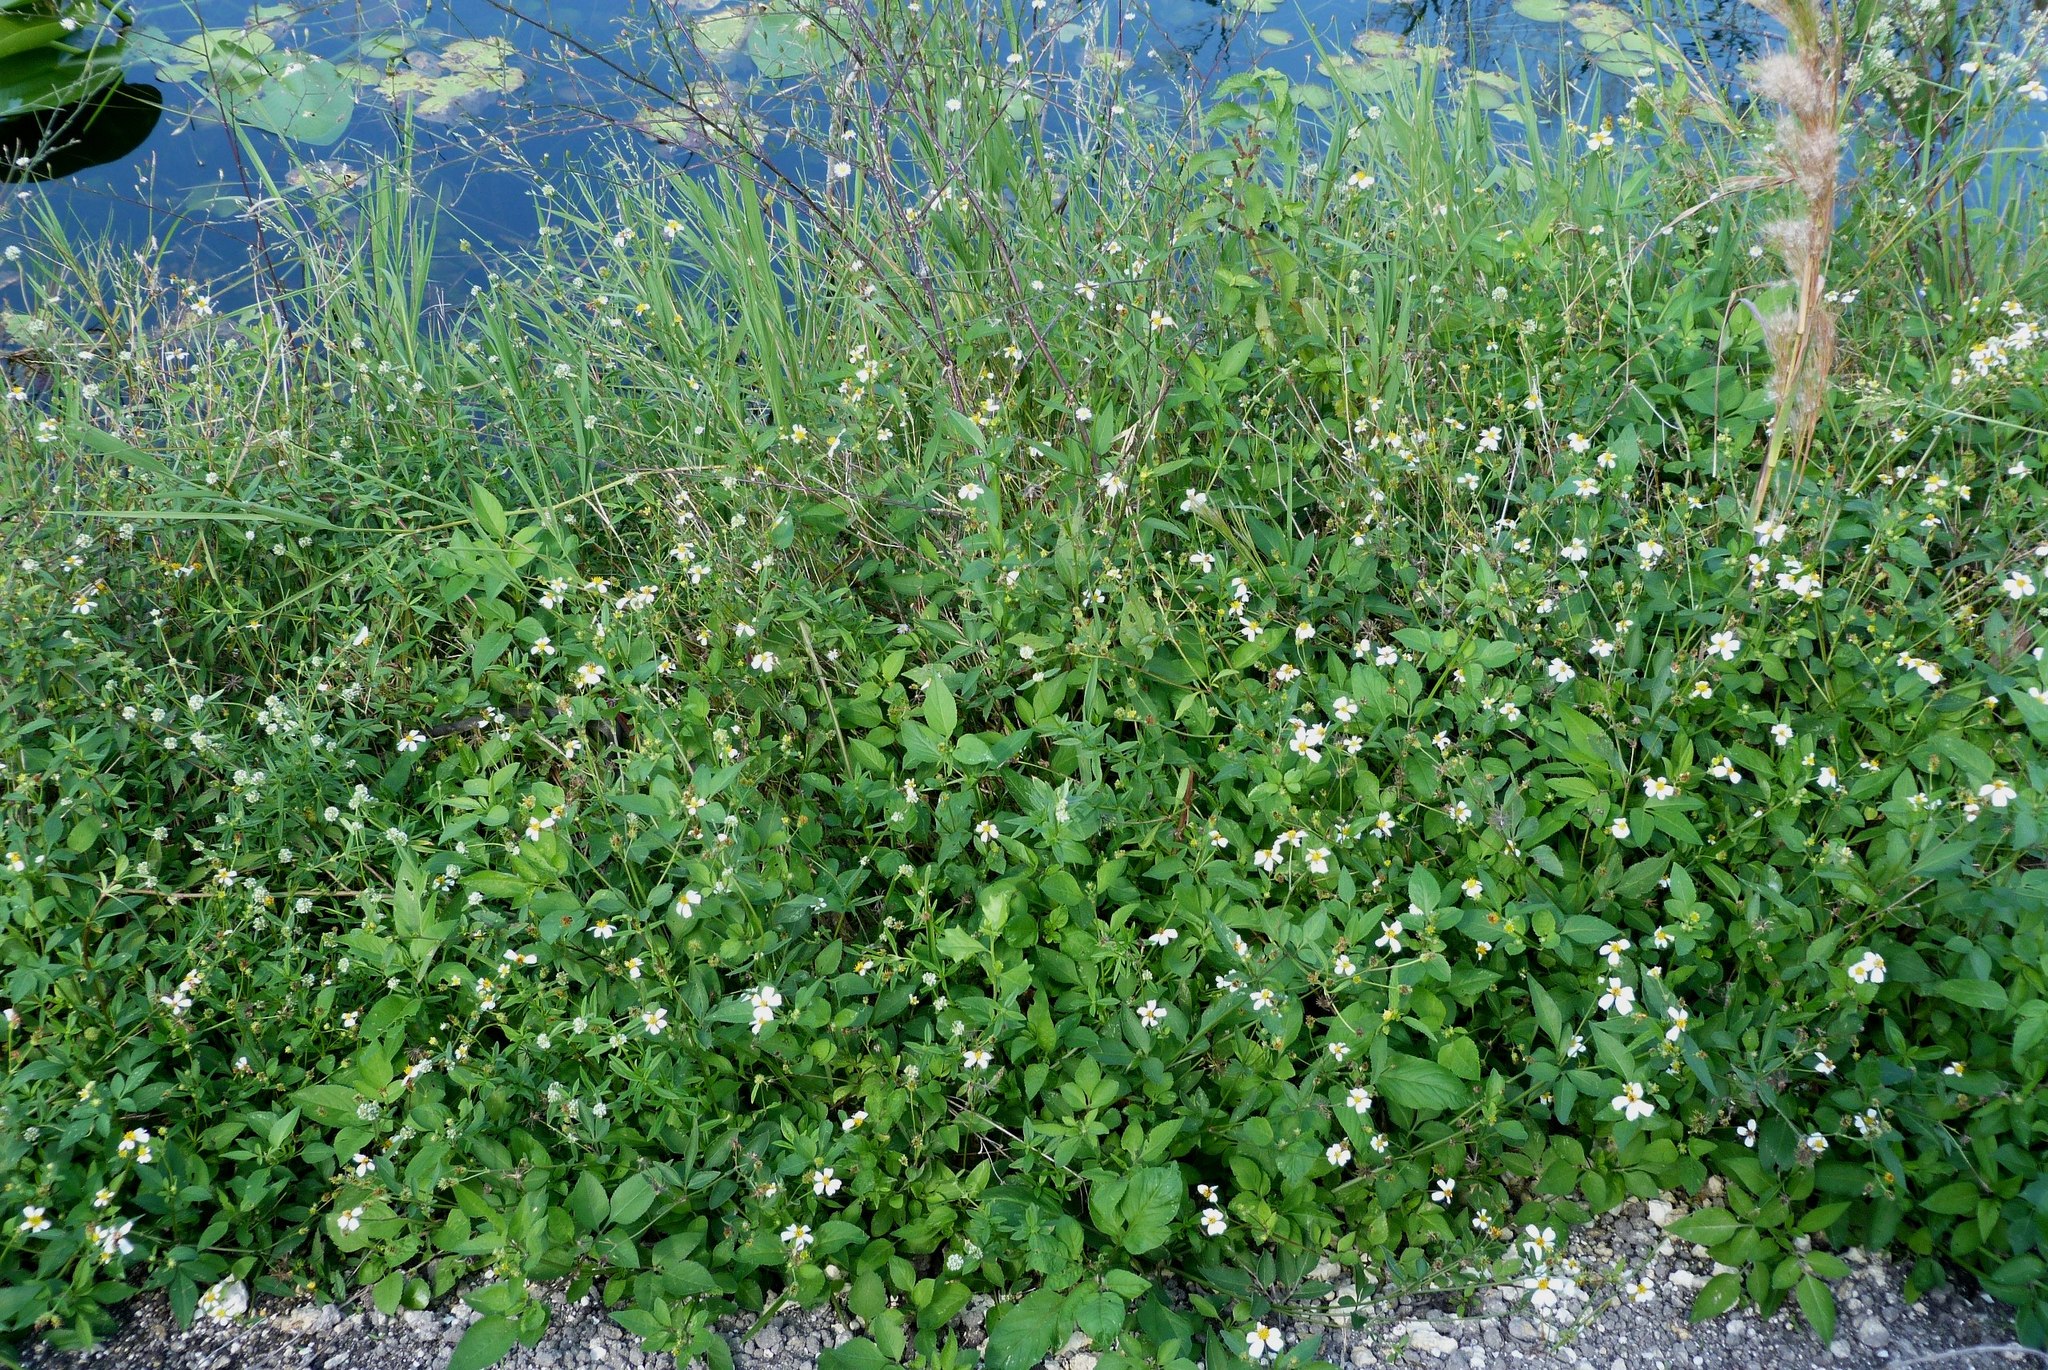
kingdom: Plantae
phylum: Tracheophyta
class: Magnoliopsida
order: Asterales
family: Asteraceae
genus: Bidens
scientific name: Bidens alba
